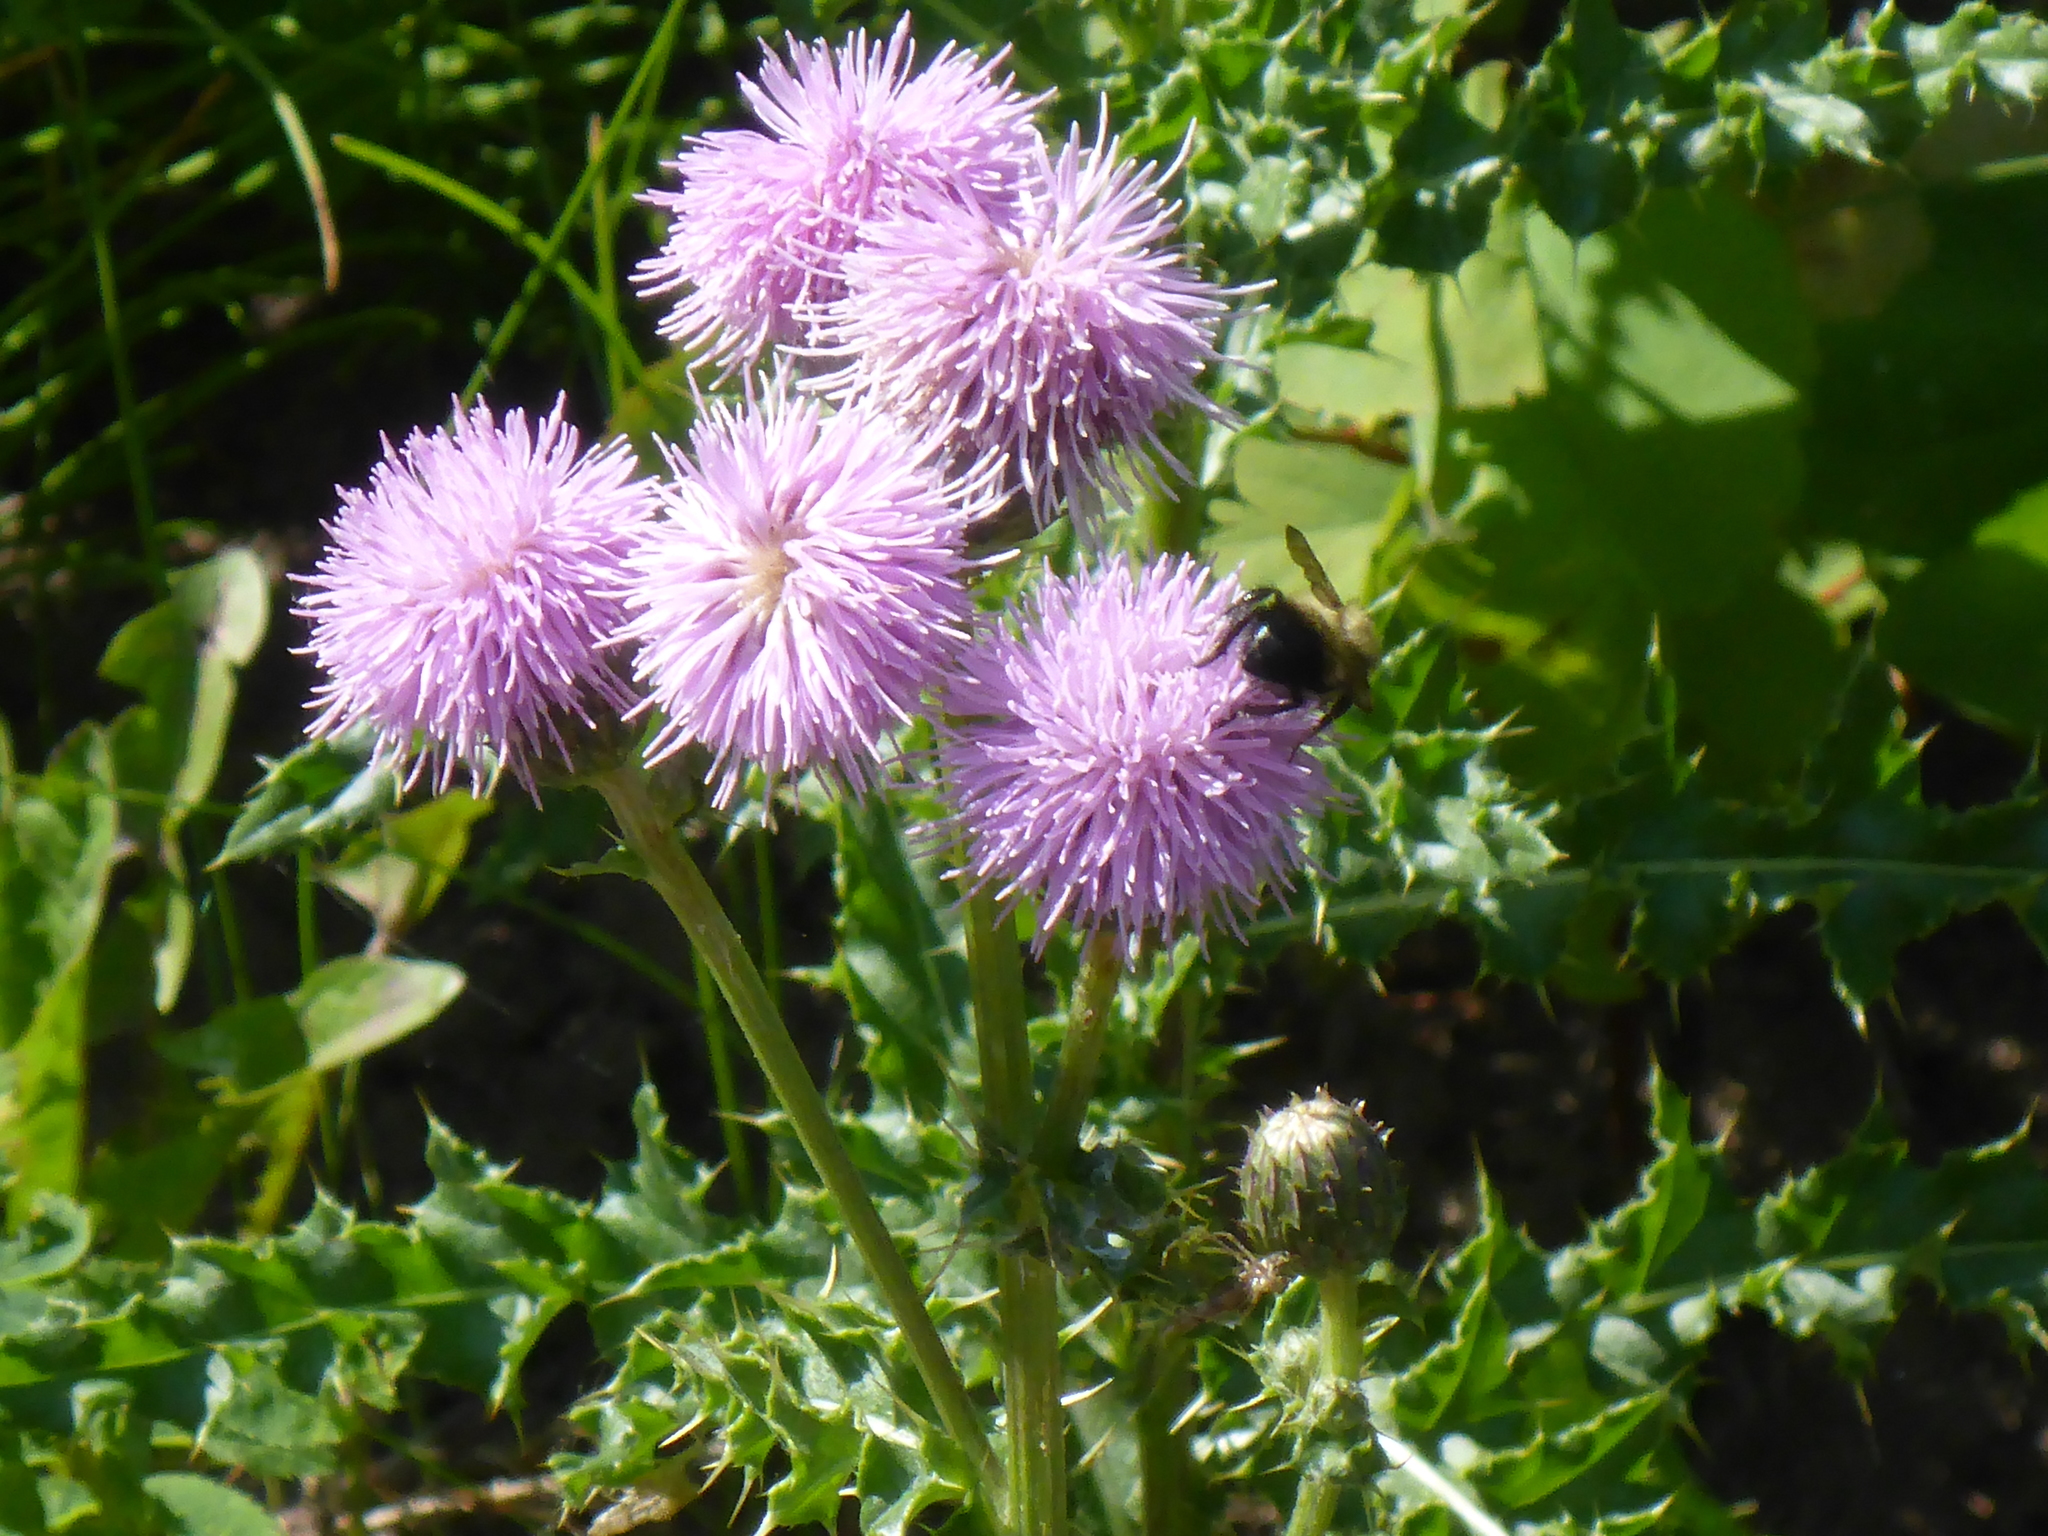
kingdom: Plantae
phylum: Tracheophyta
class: Magnoliopsida
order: Asterales
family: Asteraceae
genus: Cirsium
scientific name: Cirsium arvense
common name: Creeping thistle
